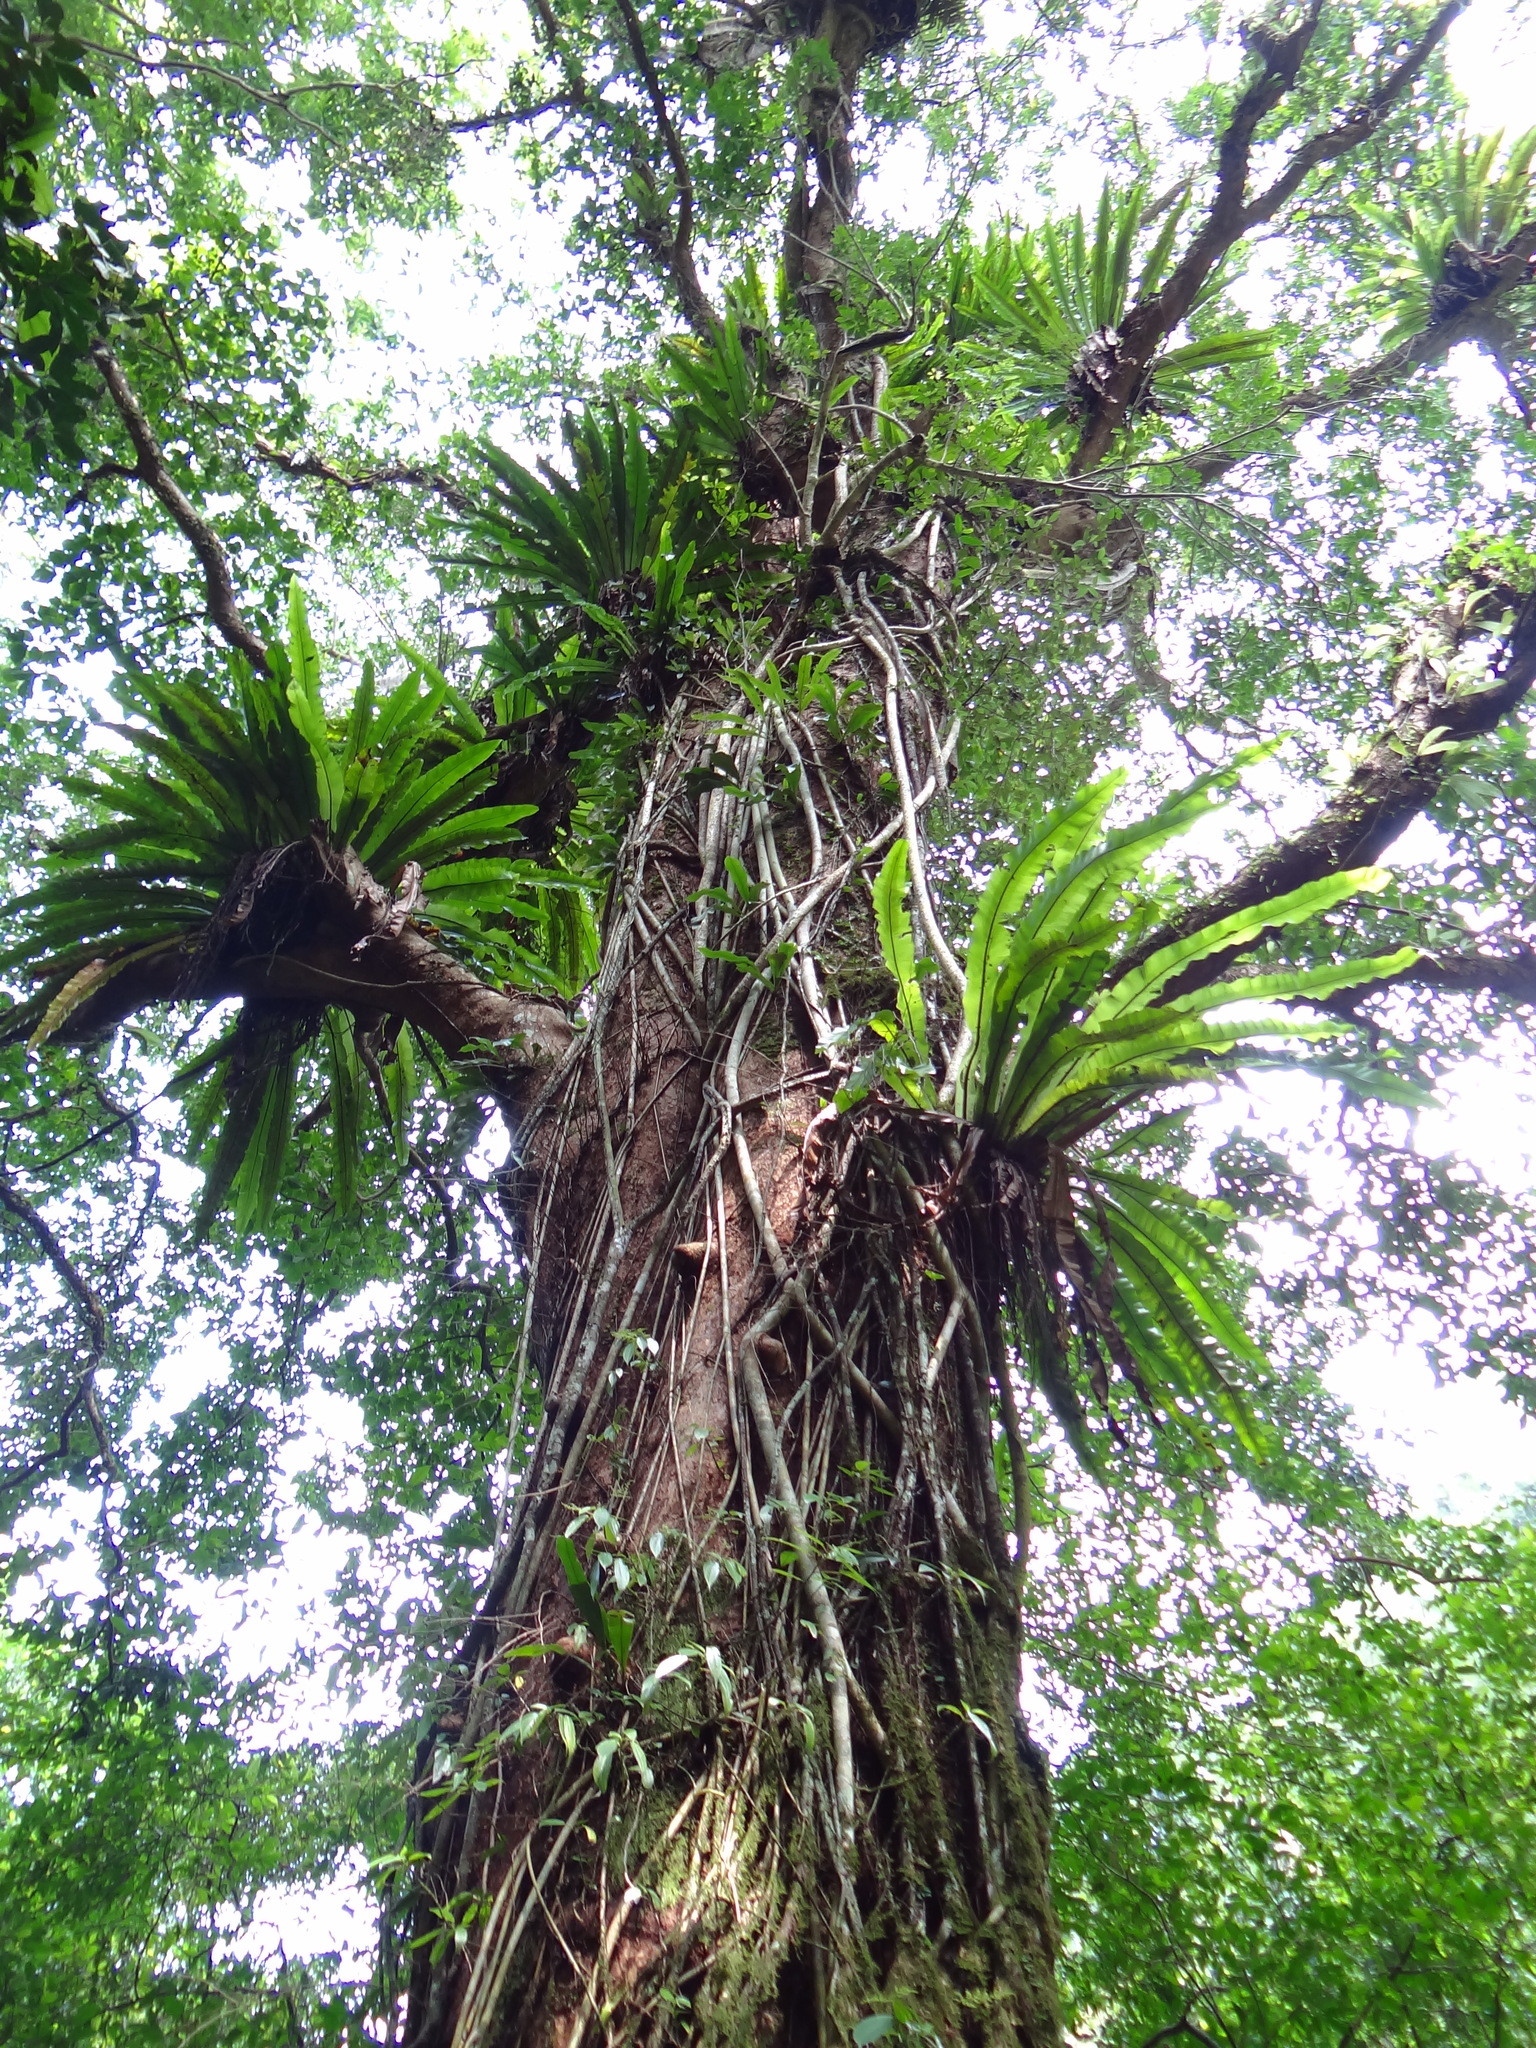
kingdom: Plantae
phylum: Tracheophyta
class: Magnoliopsida
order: Malpighiales
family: Phyllanthaceae
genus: Bischofia
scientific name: Bischofia javanica
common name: Javanese bishopwood
